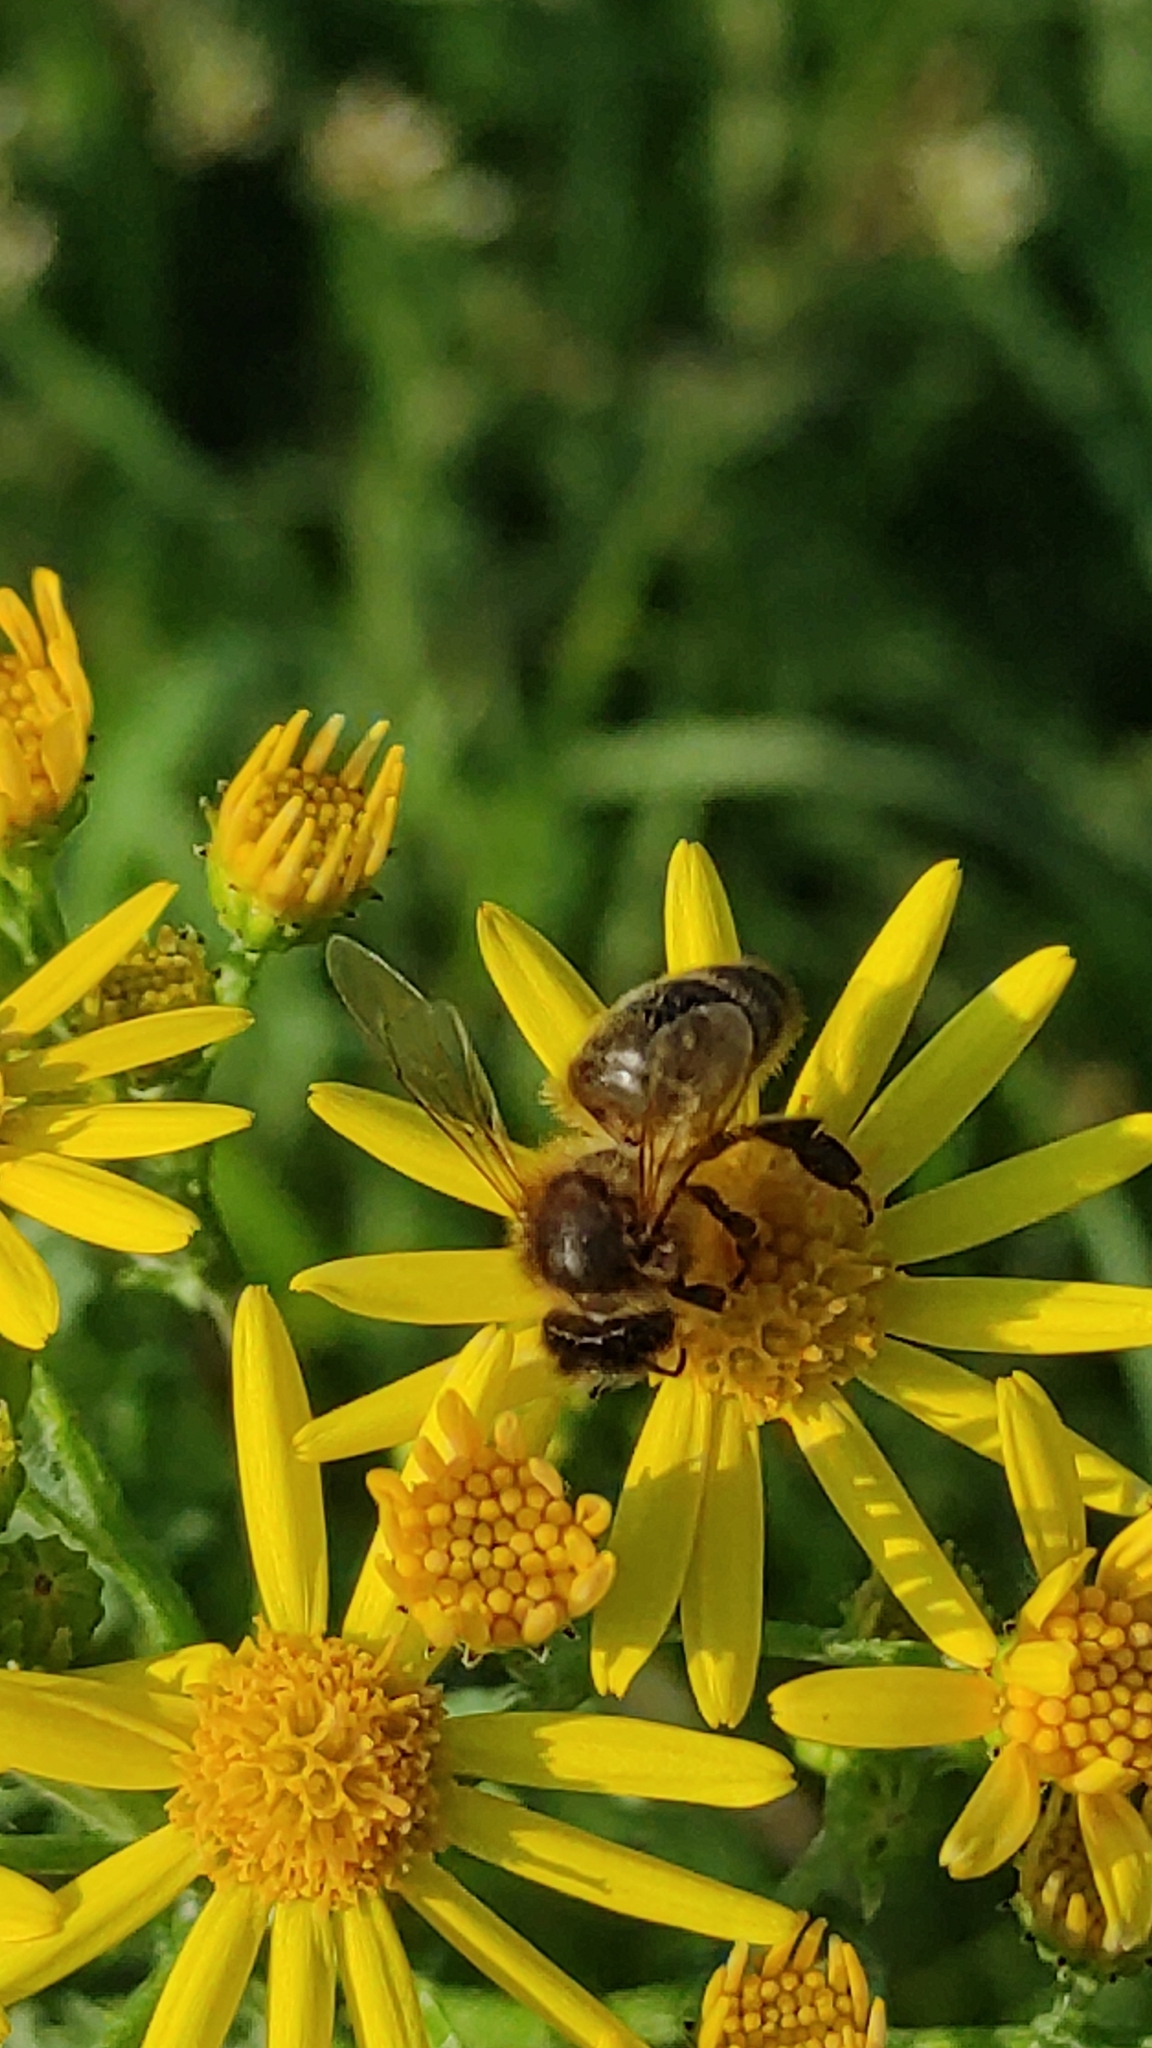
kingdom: Animalia
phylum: Arthropoda
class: Insecta
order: Hymenoptera
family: Apidae
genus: Apis
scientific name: Apis mellifera
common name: Honey bee
